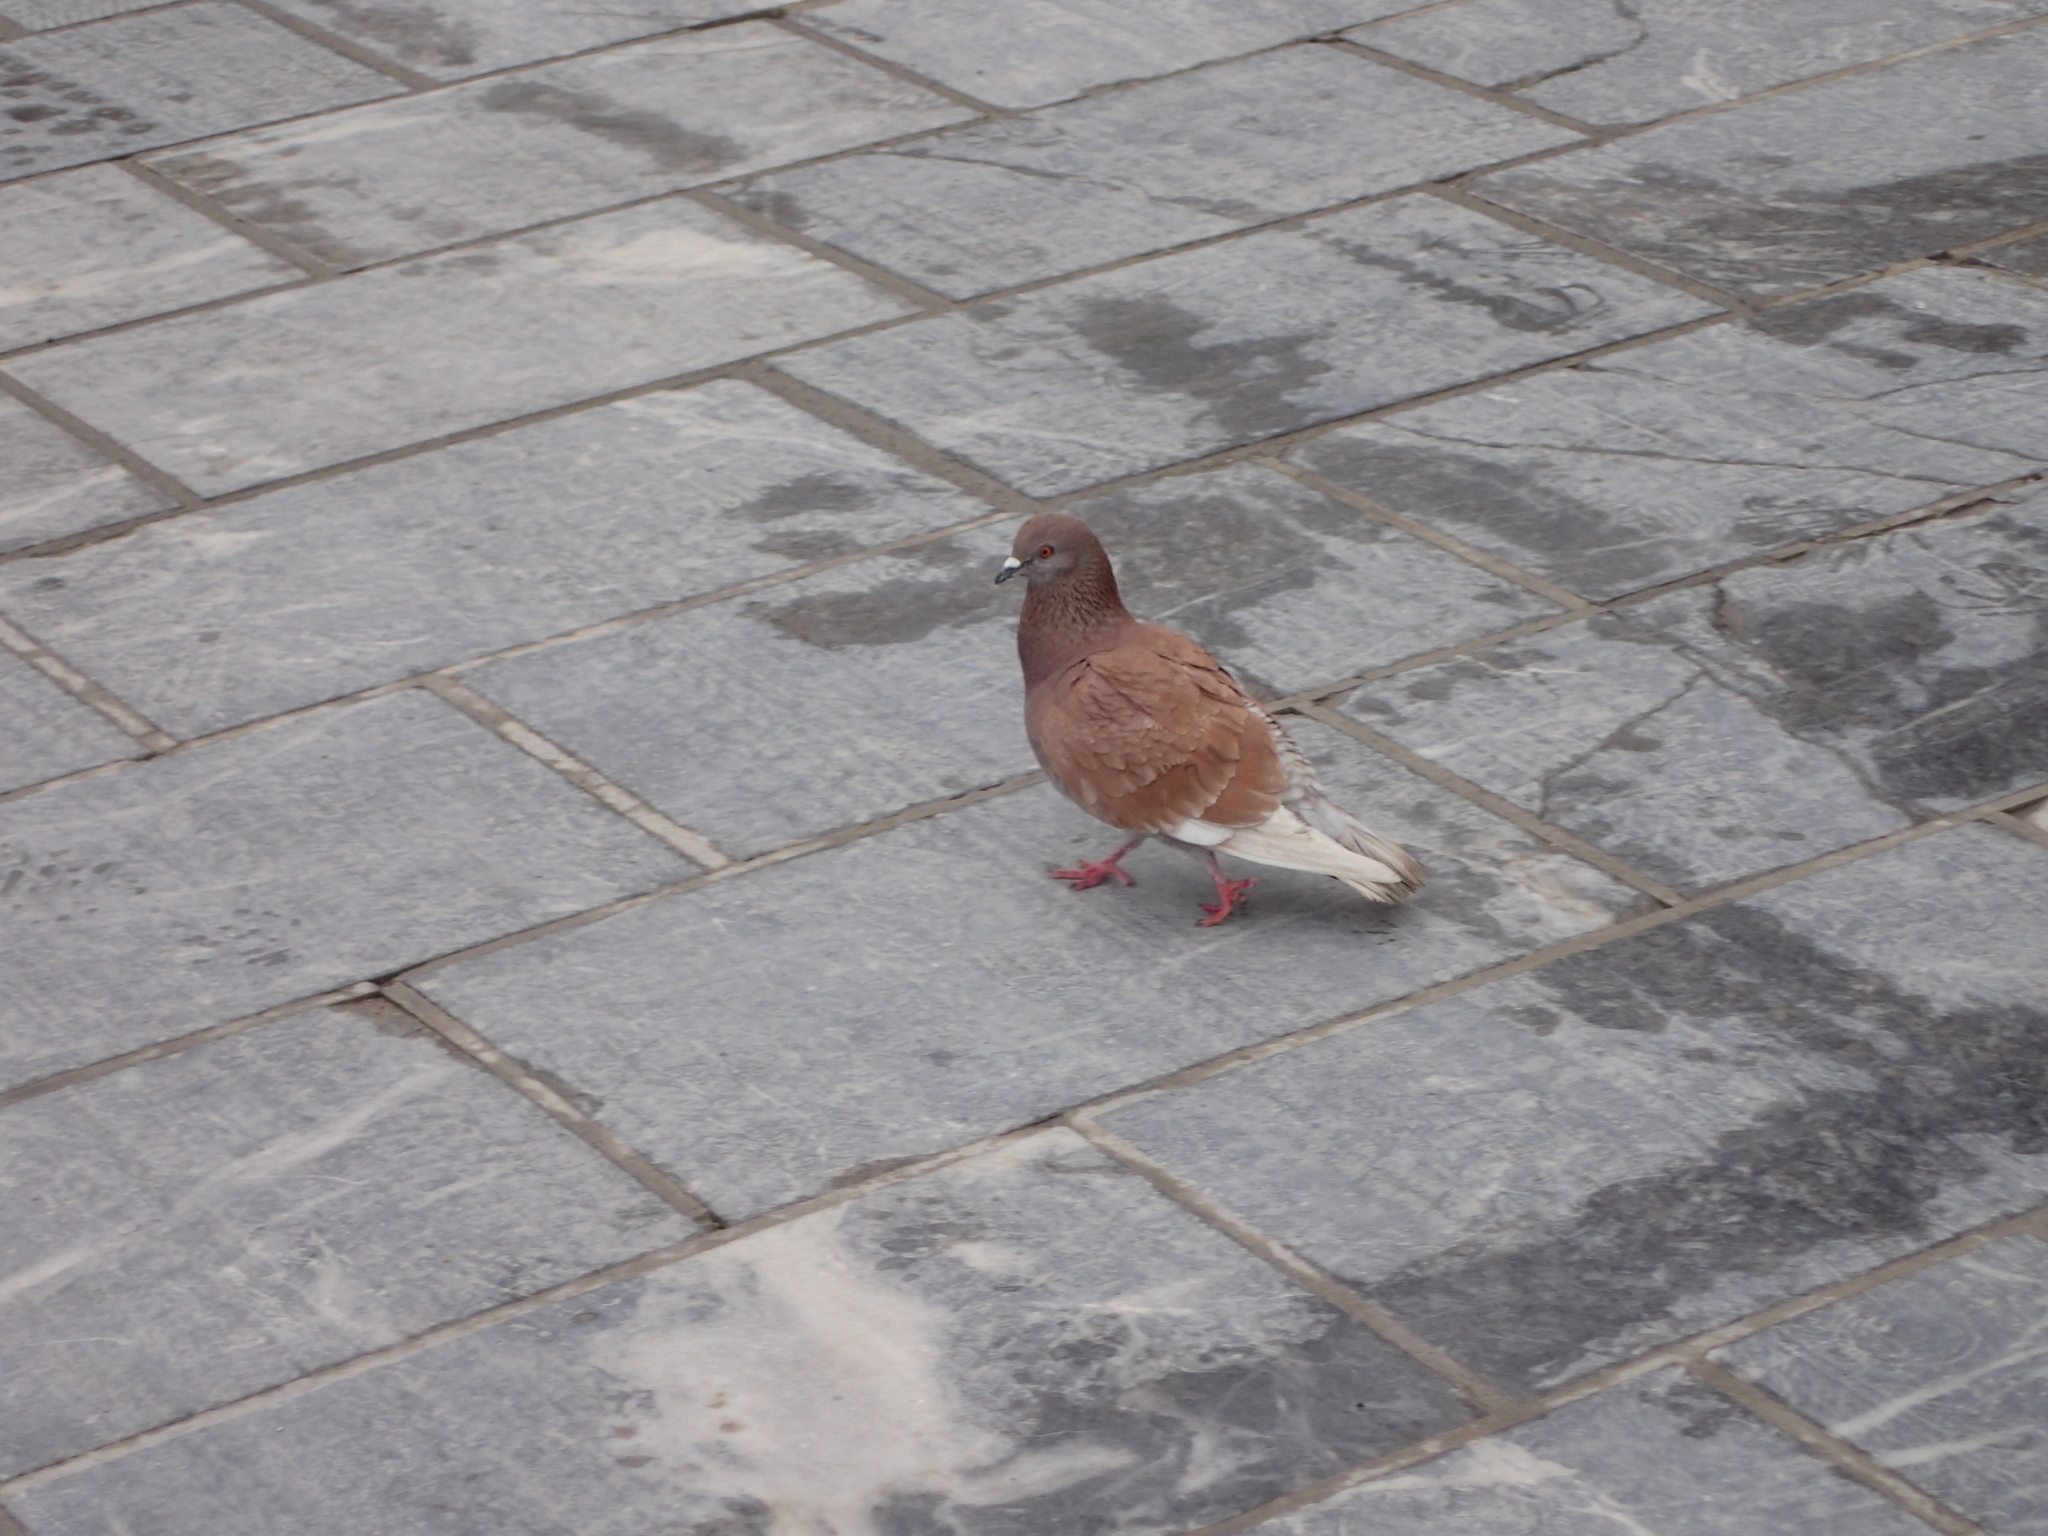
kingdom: Animalia
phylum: Chordata
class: Aves
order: Columbiformes
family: Columbidae
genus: Columba
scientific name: Columba livia
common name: Rock pigeon
